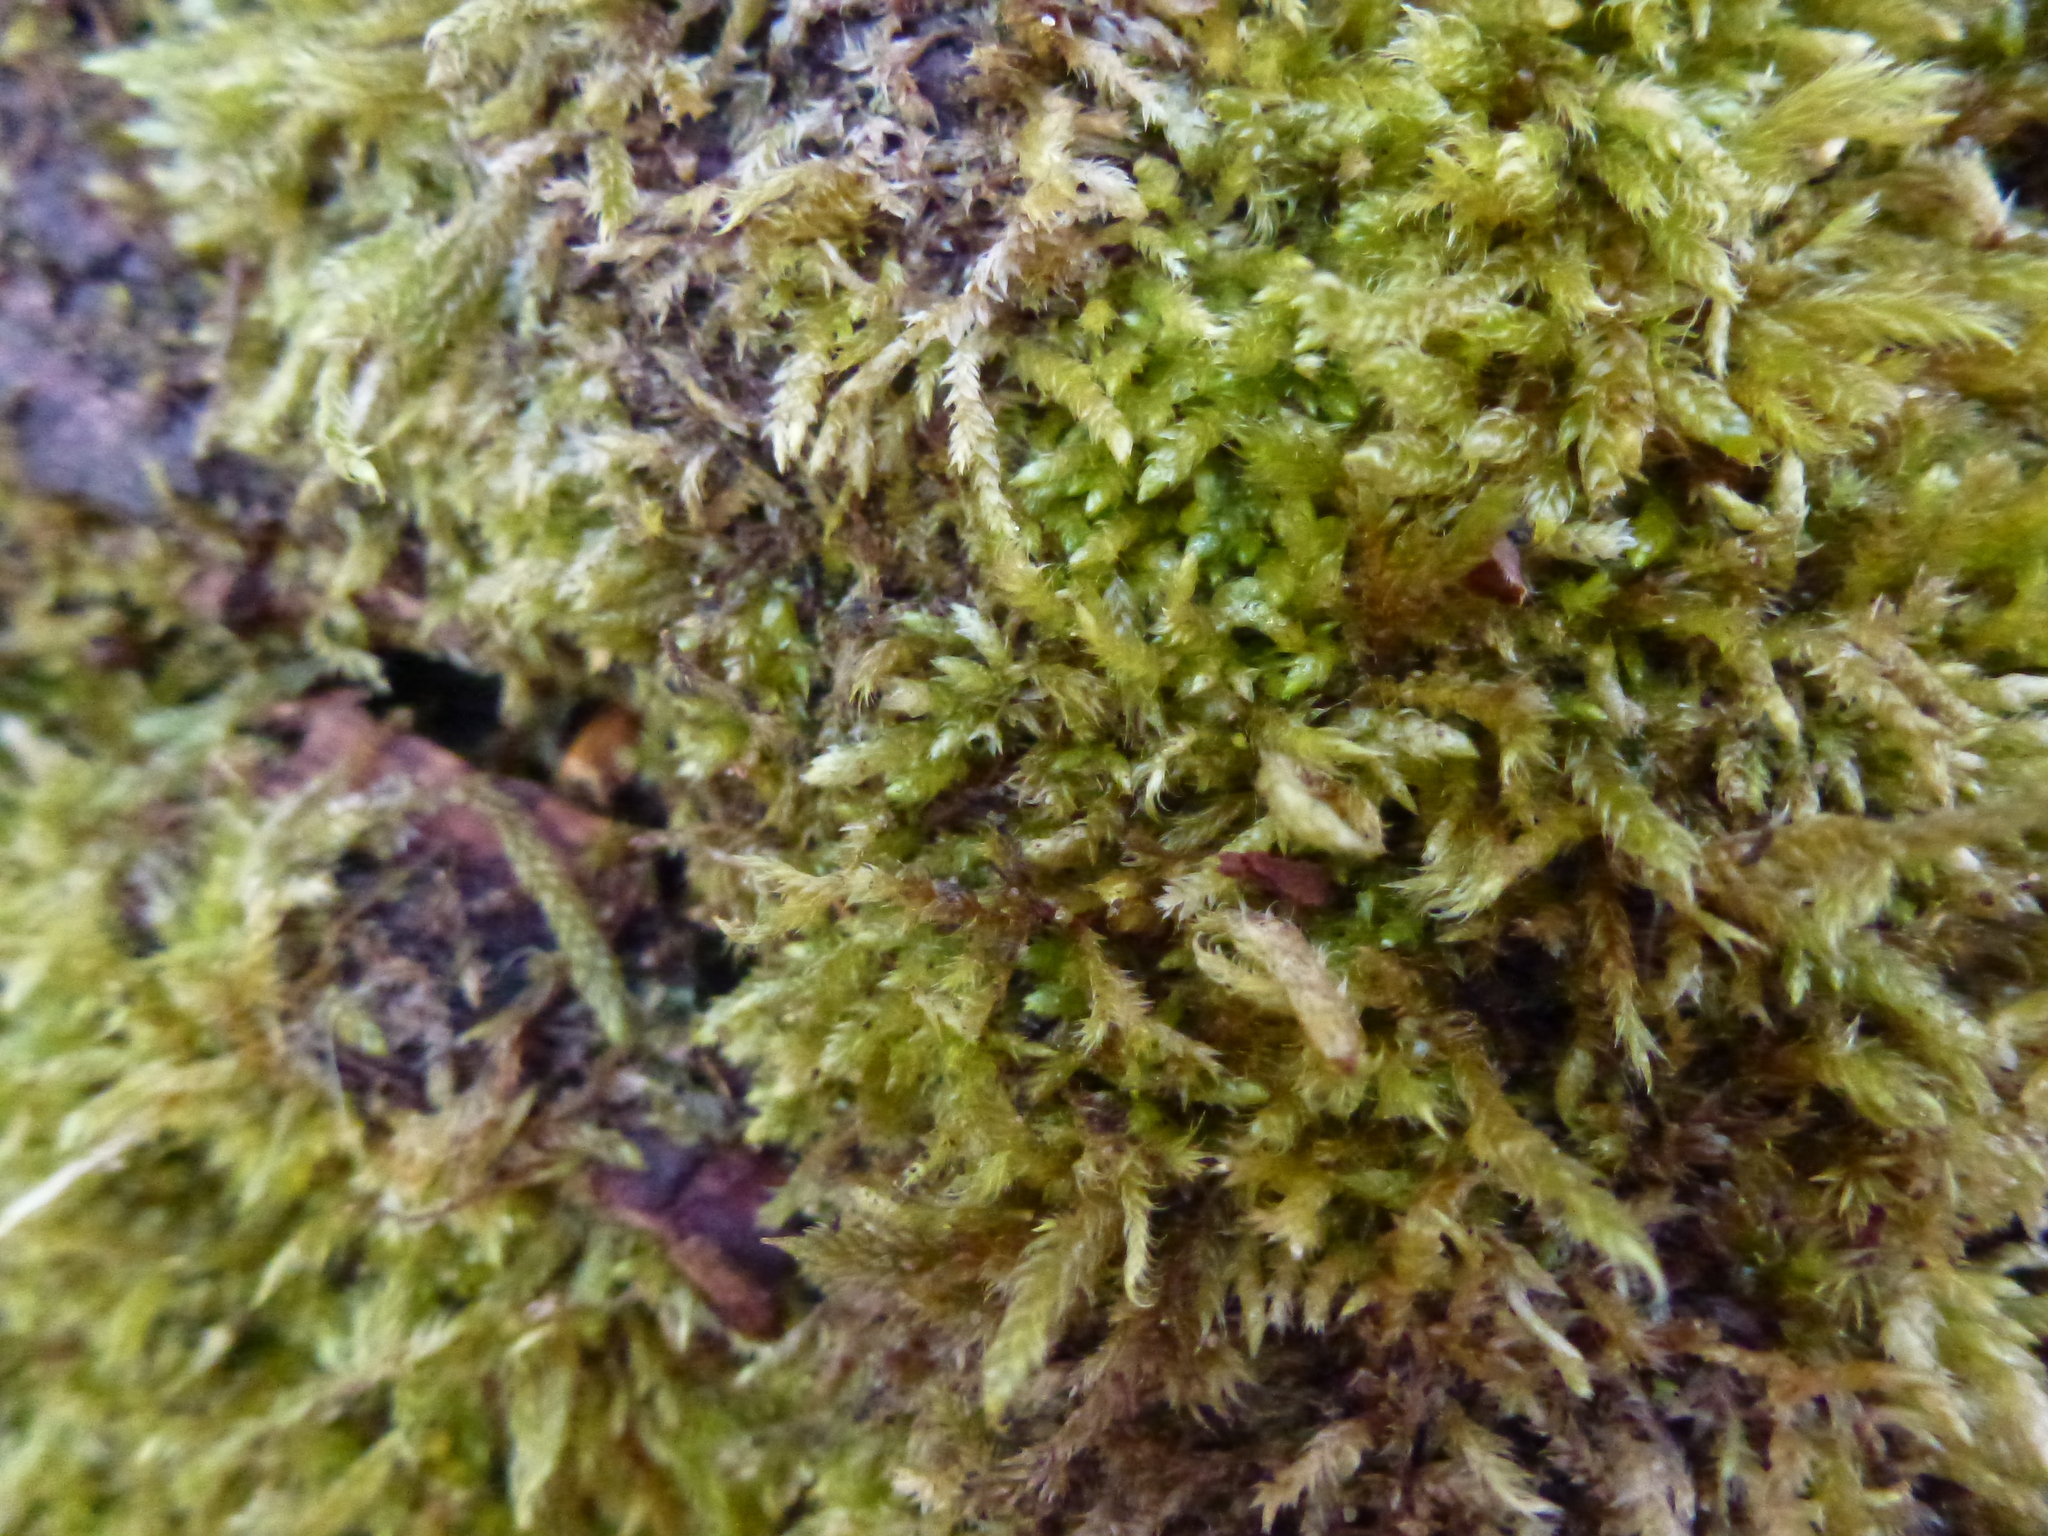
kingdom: Plantae
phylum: Bryophyta
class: Bryopsida
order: Hypnales
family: Hypnaceae
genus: Hypnum
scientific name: Hypnum cupressiforme
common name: Cypress-leaved plait-moss
